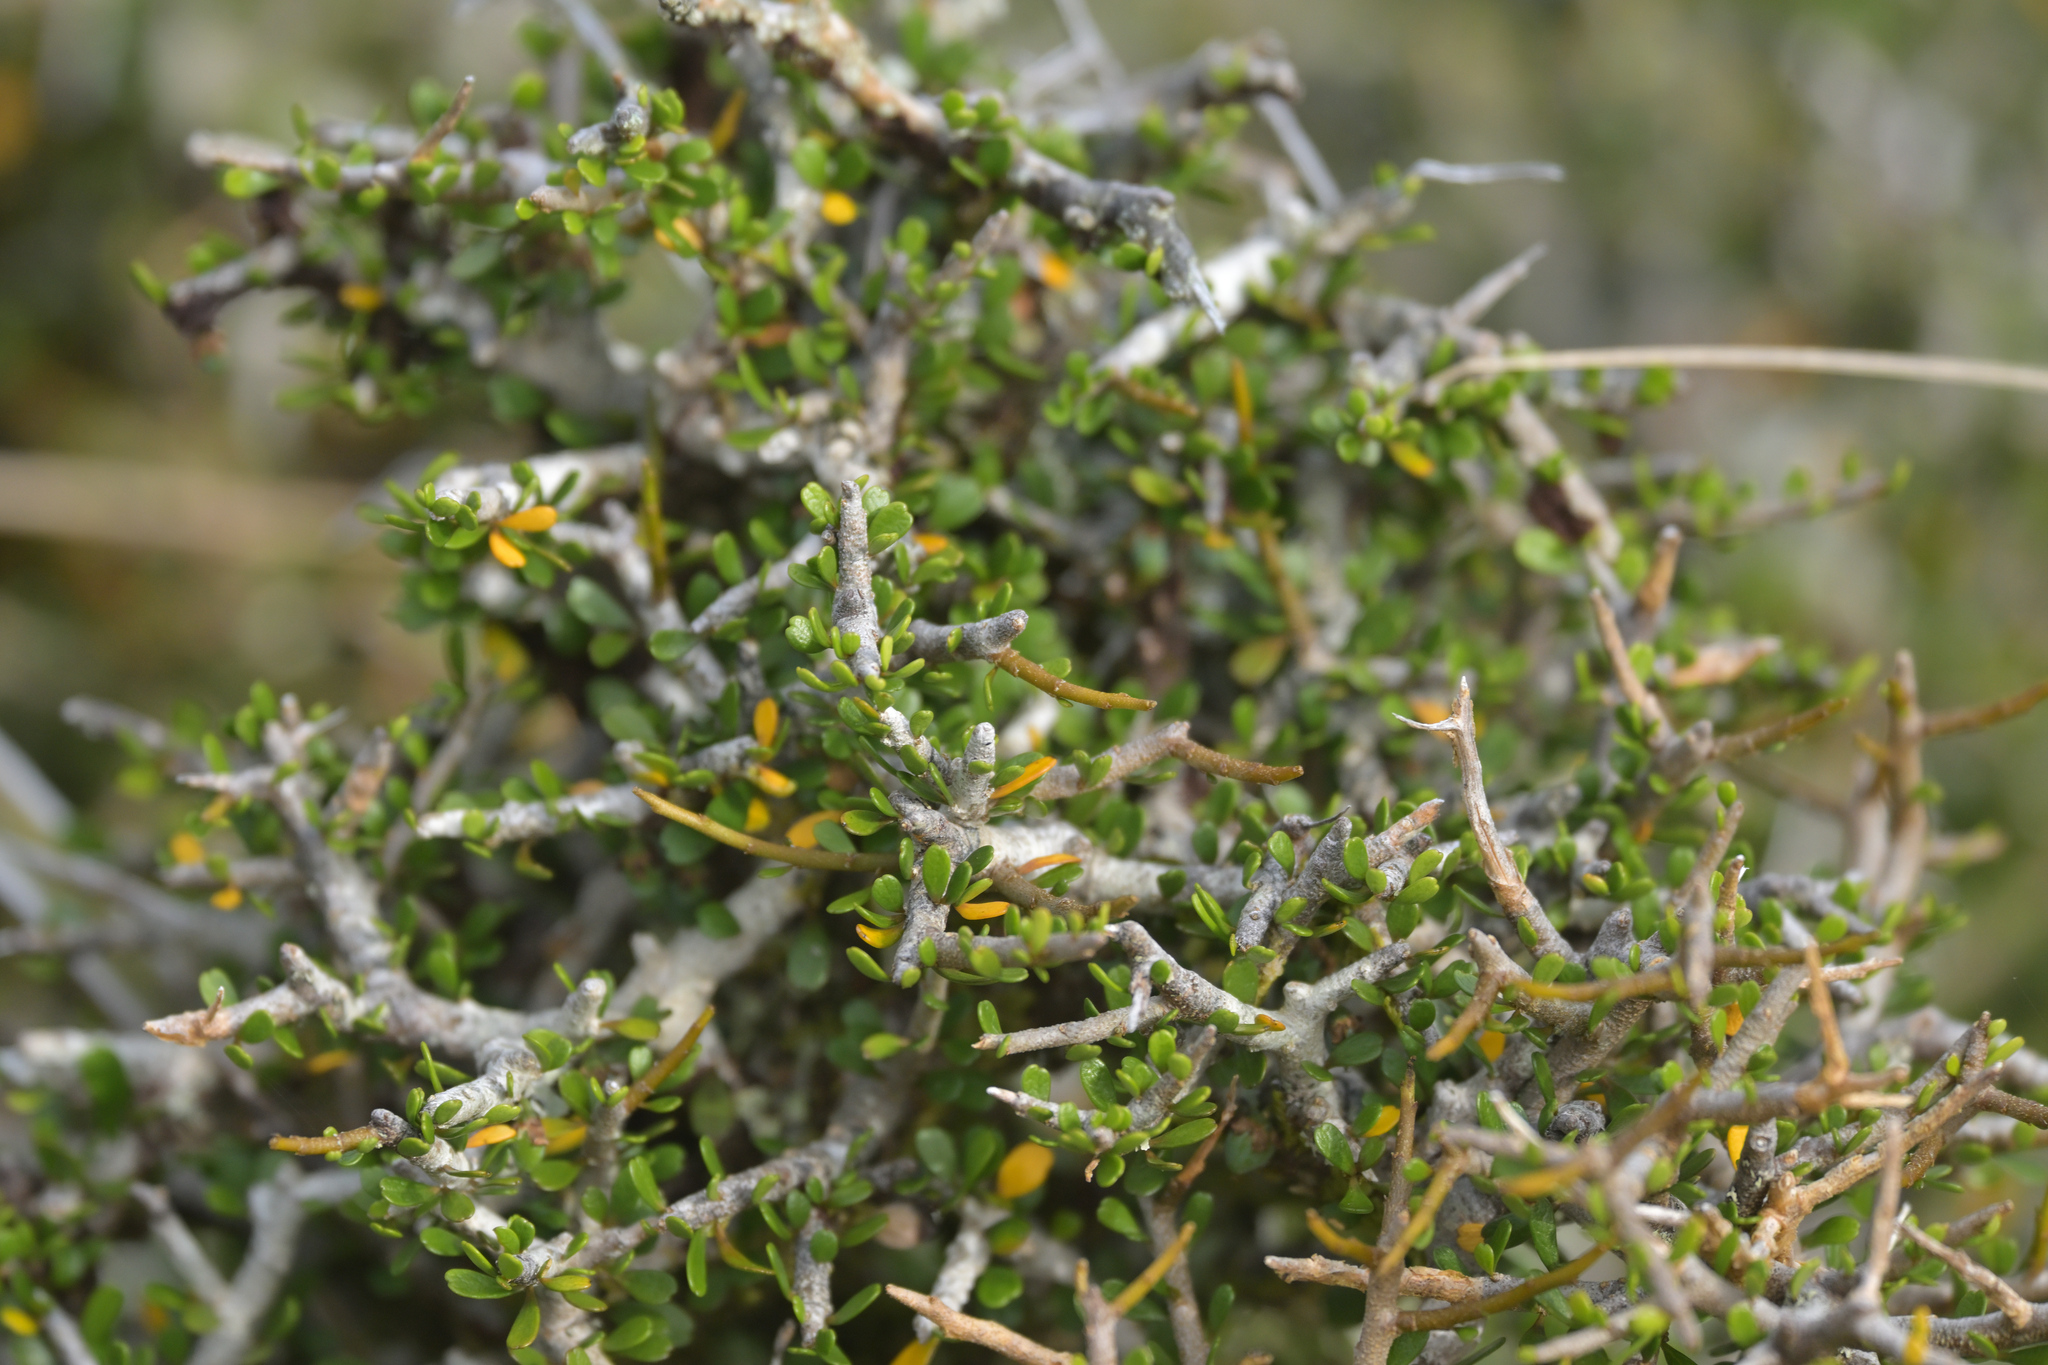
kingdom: Plantae
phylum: Tracheophyta
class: Magnoliopsida
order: Malpighiales
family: Violaceae
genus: Melicytus
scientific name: Melicytus alpinus
